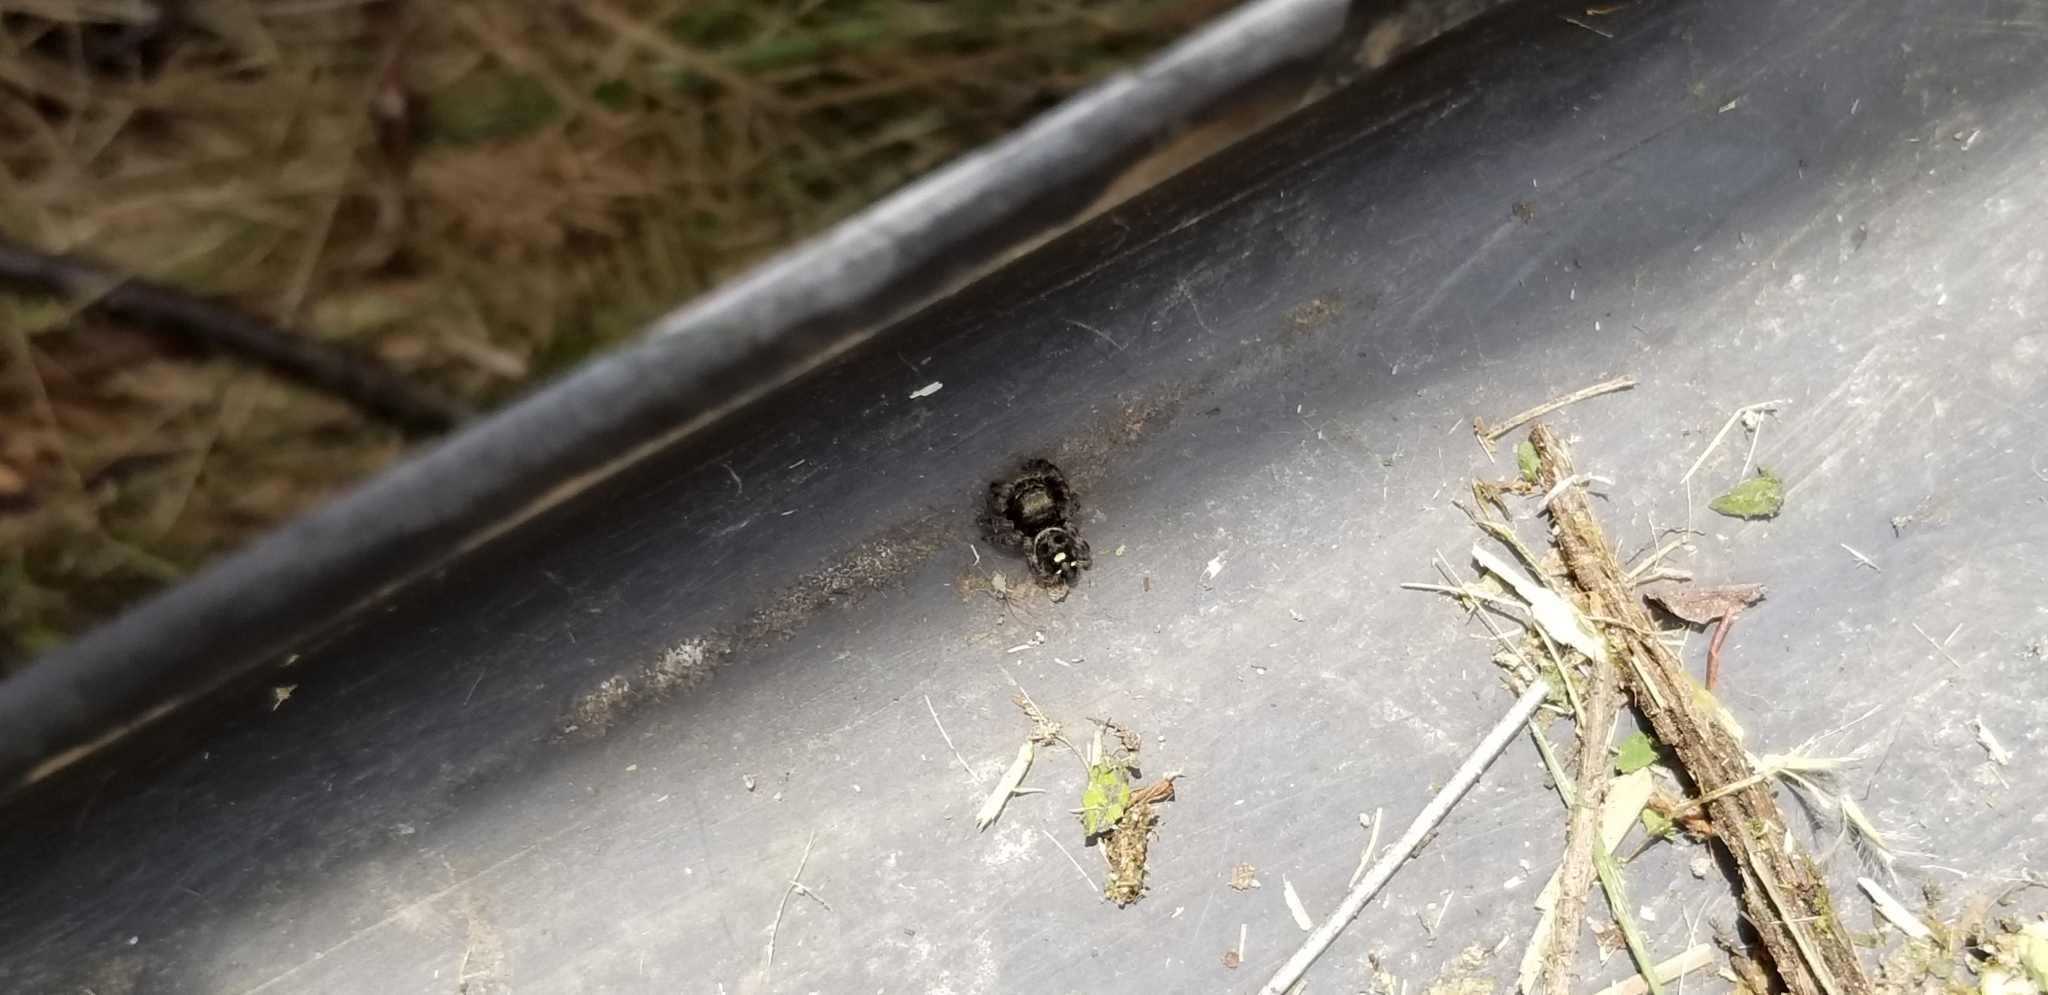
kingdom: Animalia
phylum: Arthropoda
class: Arachnida
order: Araneae
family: Salticidae
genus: Phidippus
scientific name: Phidippus audax
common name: Bold jumper
